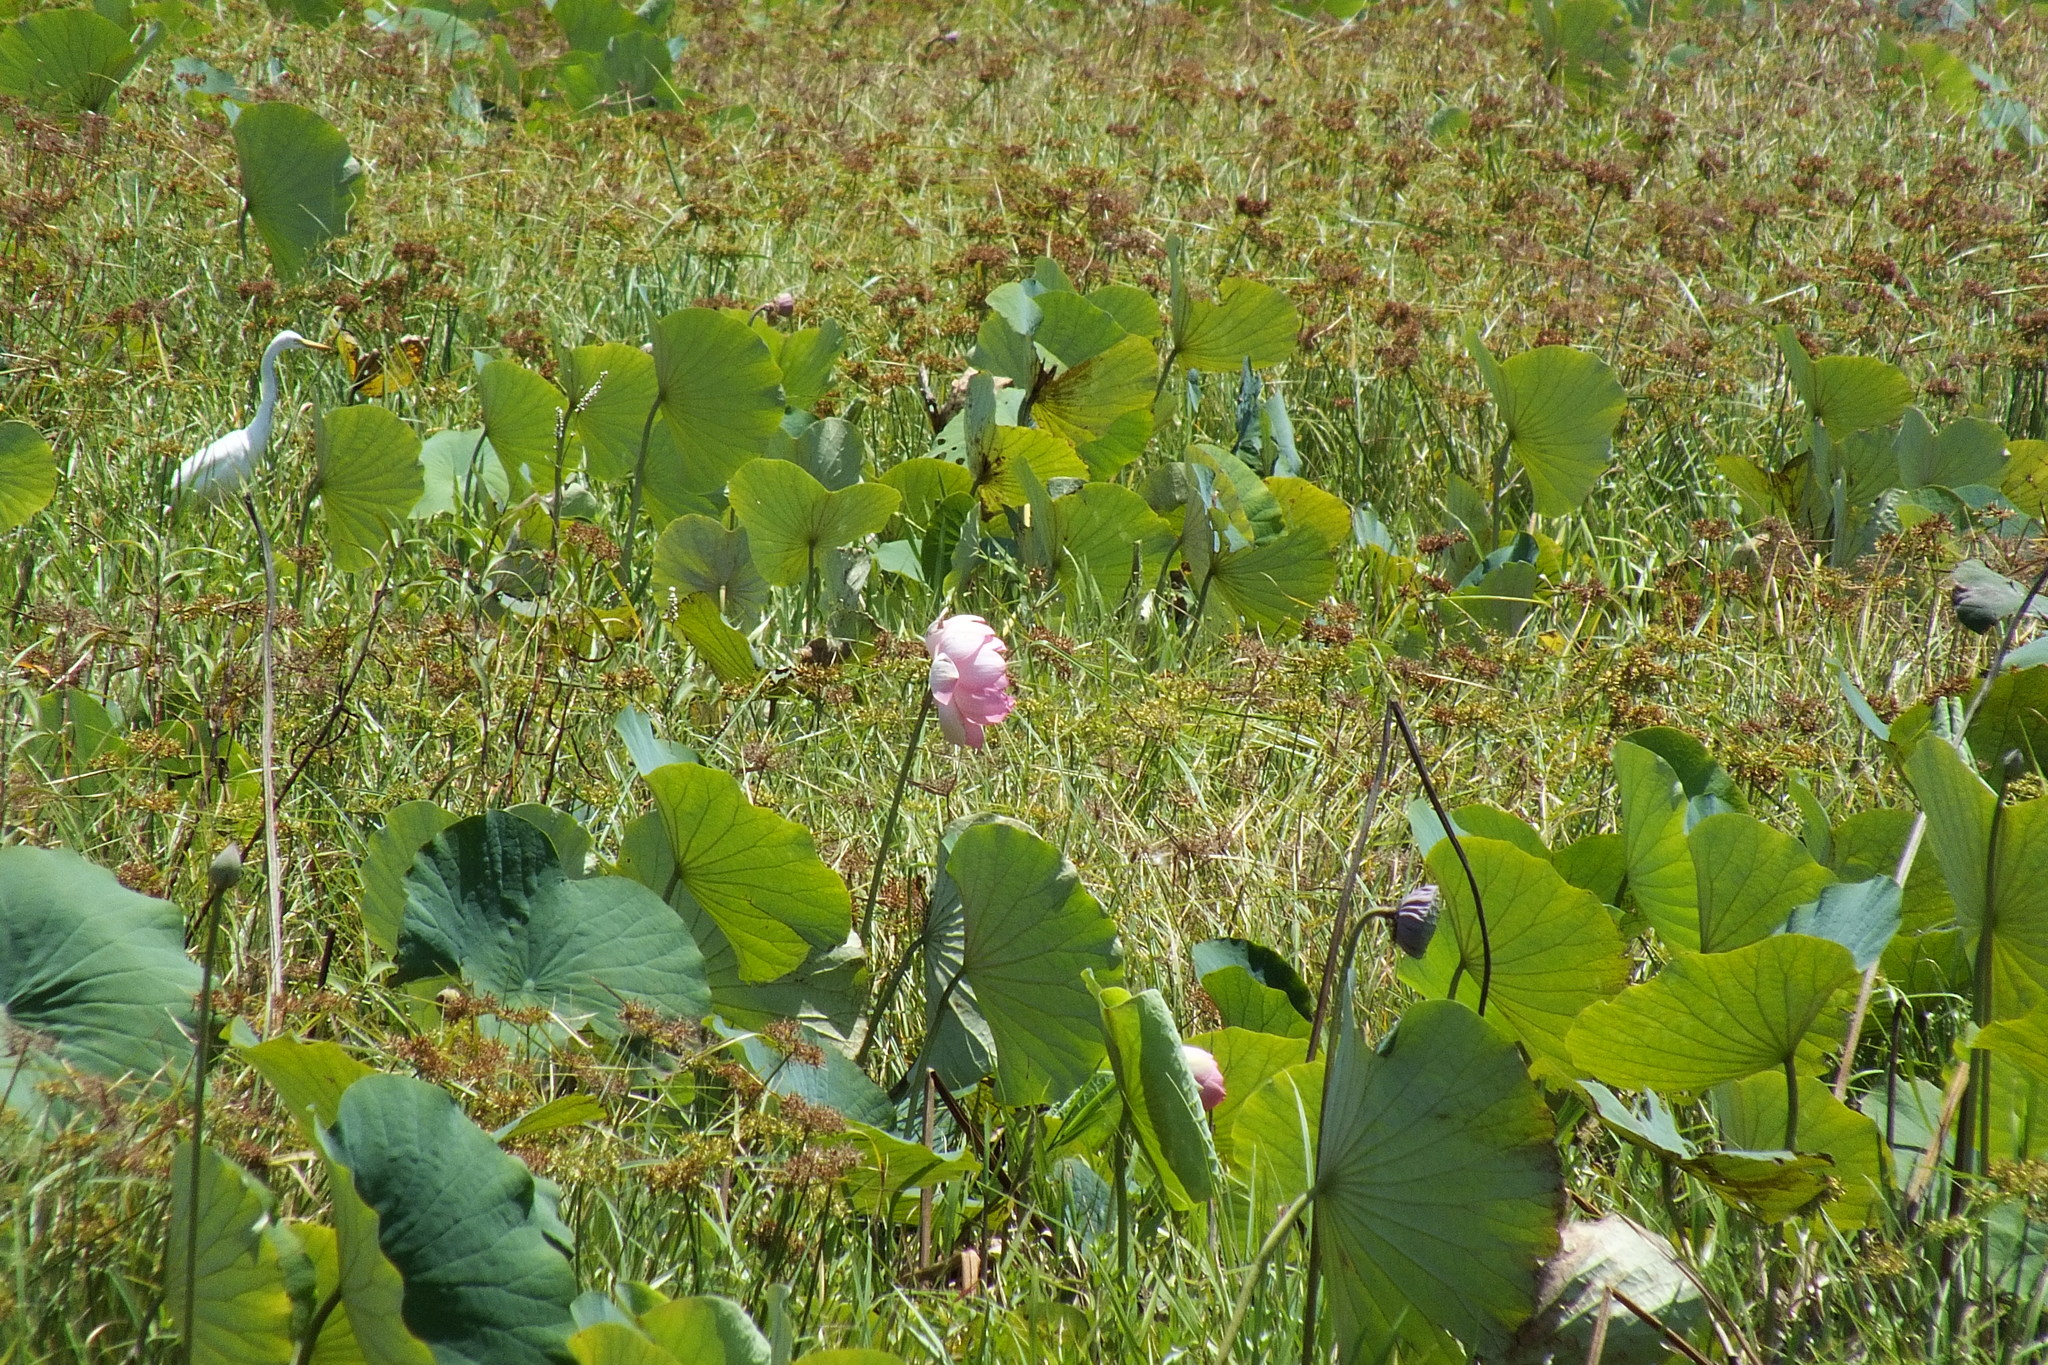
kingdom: Plantae
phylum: Tracheophyta
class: Magnoliopsida
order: Proteales
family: Nelumbonaceae
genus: Nelumbo
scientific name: Nelumbo nucifera
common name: Sacred lotus
